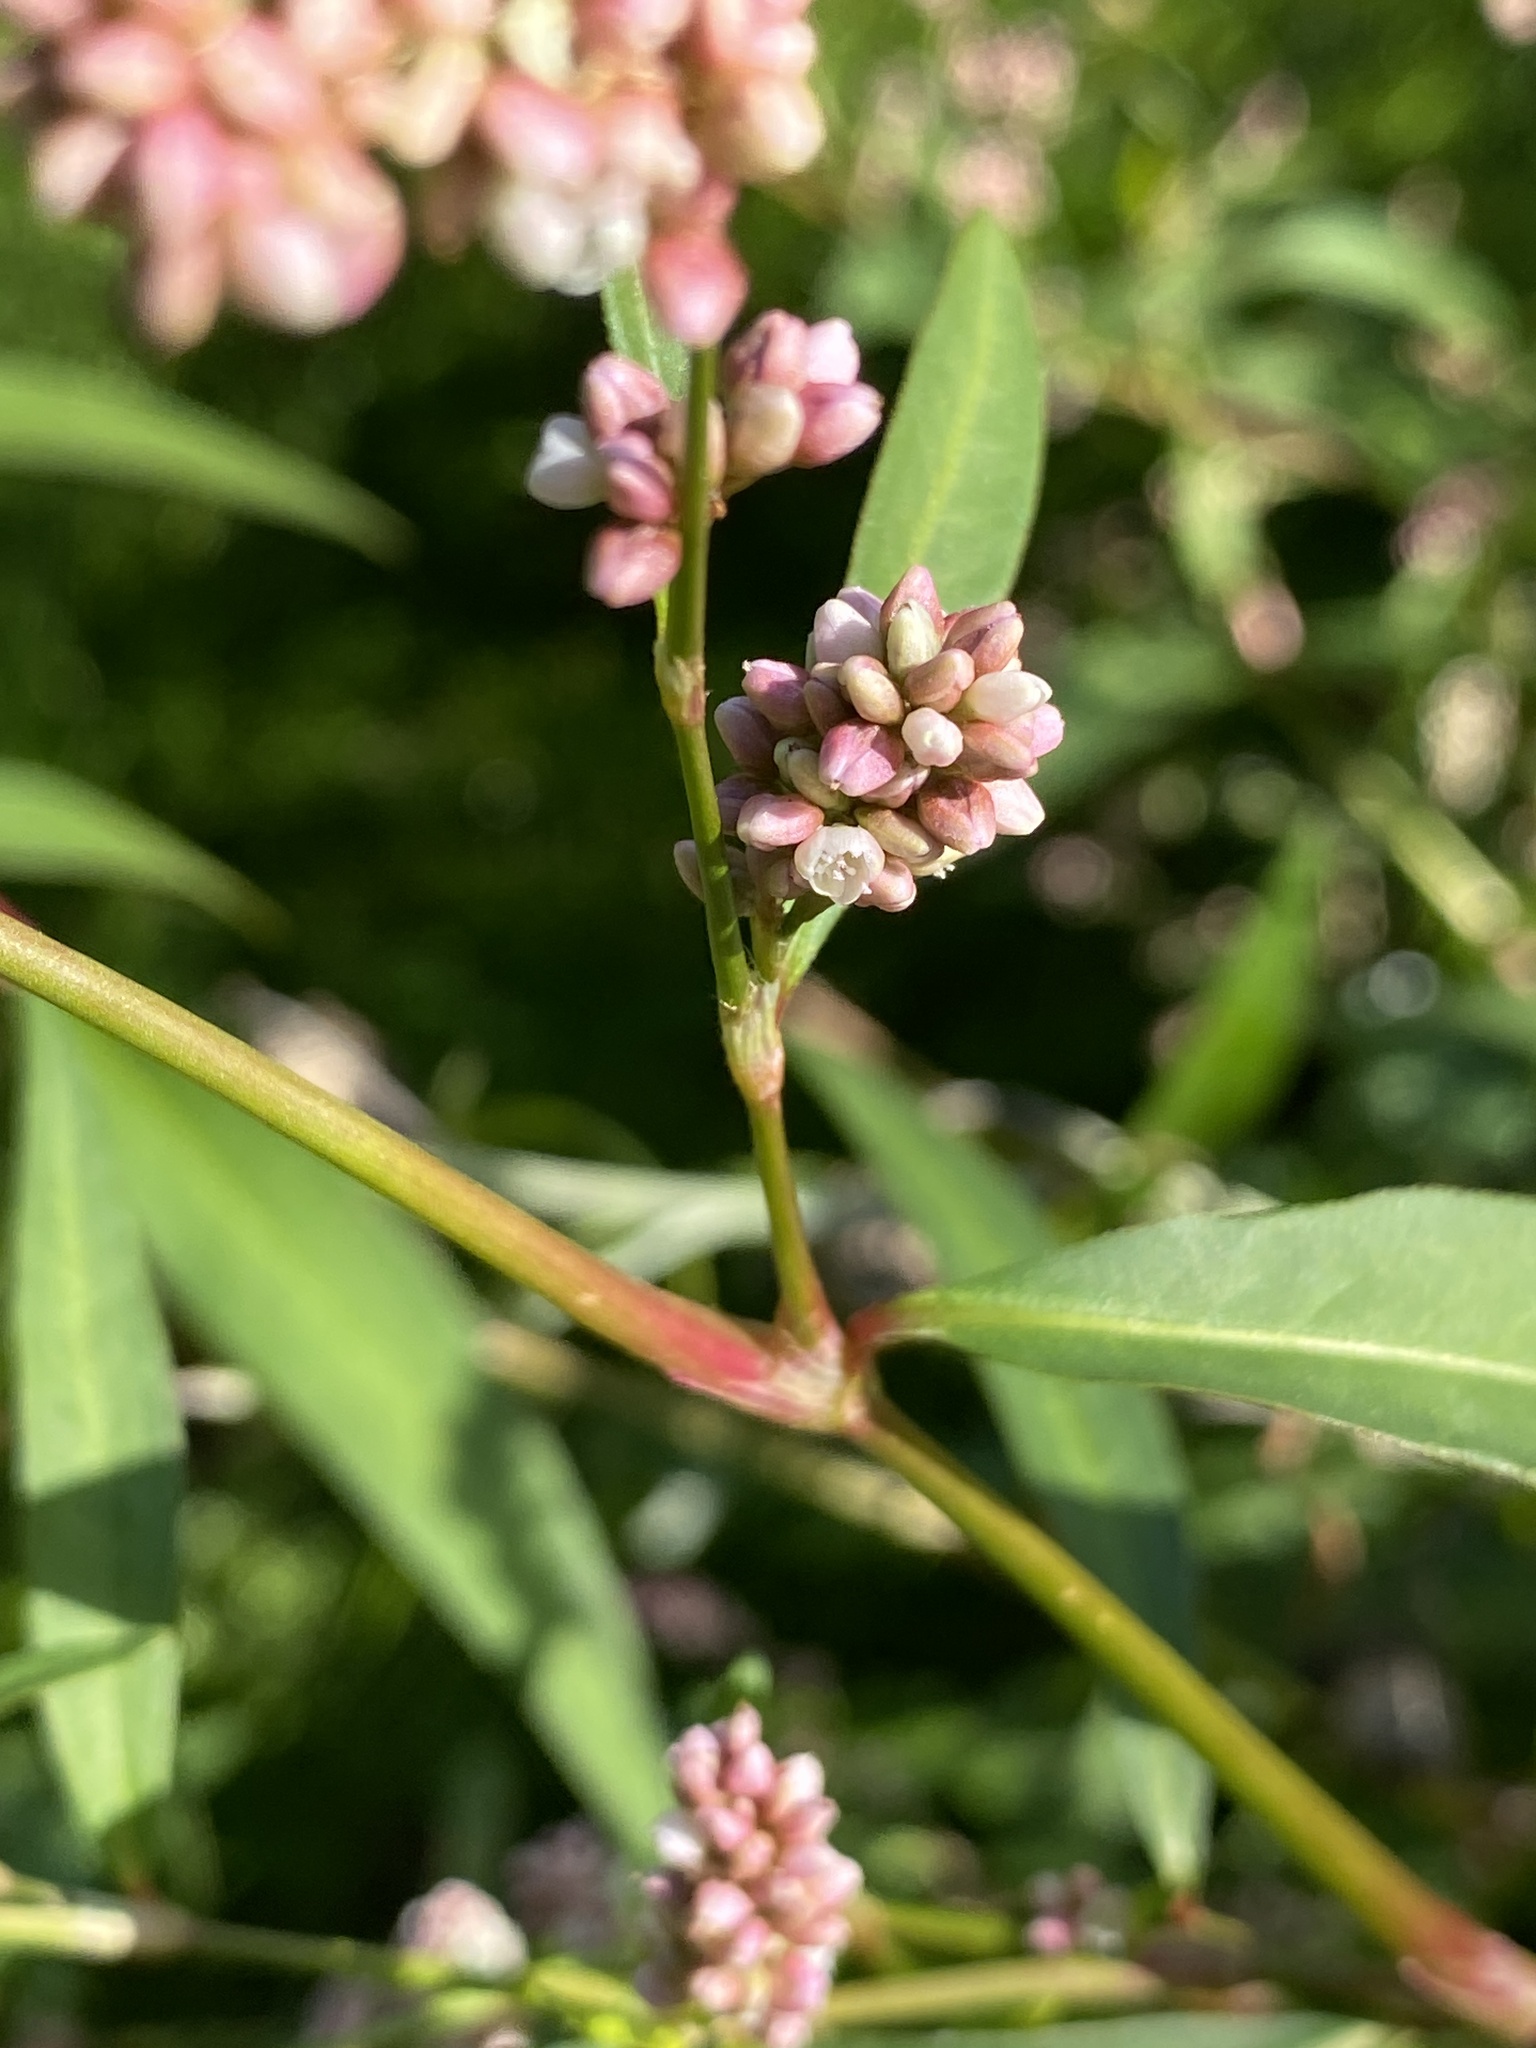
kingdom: Plantae
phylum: Tracheophyta
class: Magnoliopsida
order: Caryophyllales
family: Polygonaceae
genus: Persicaria
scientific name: Persicaria maculosa
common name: Redshank
